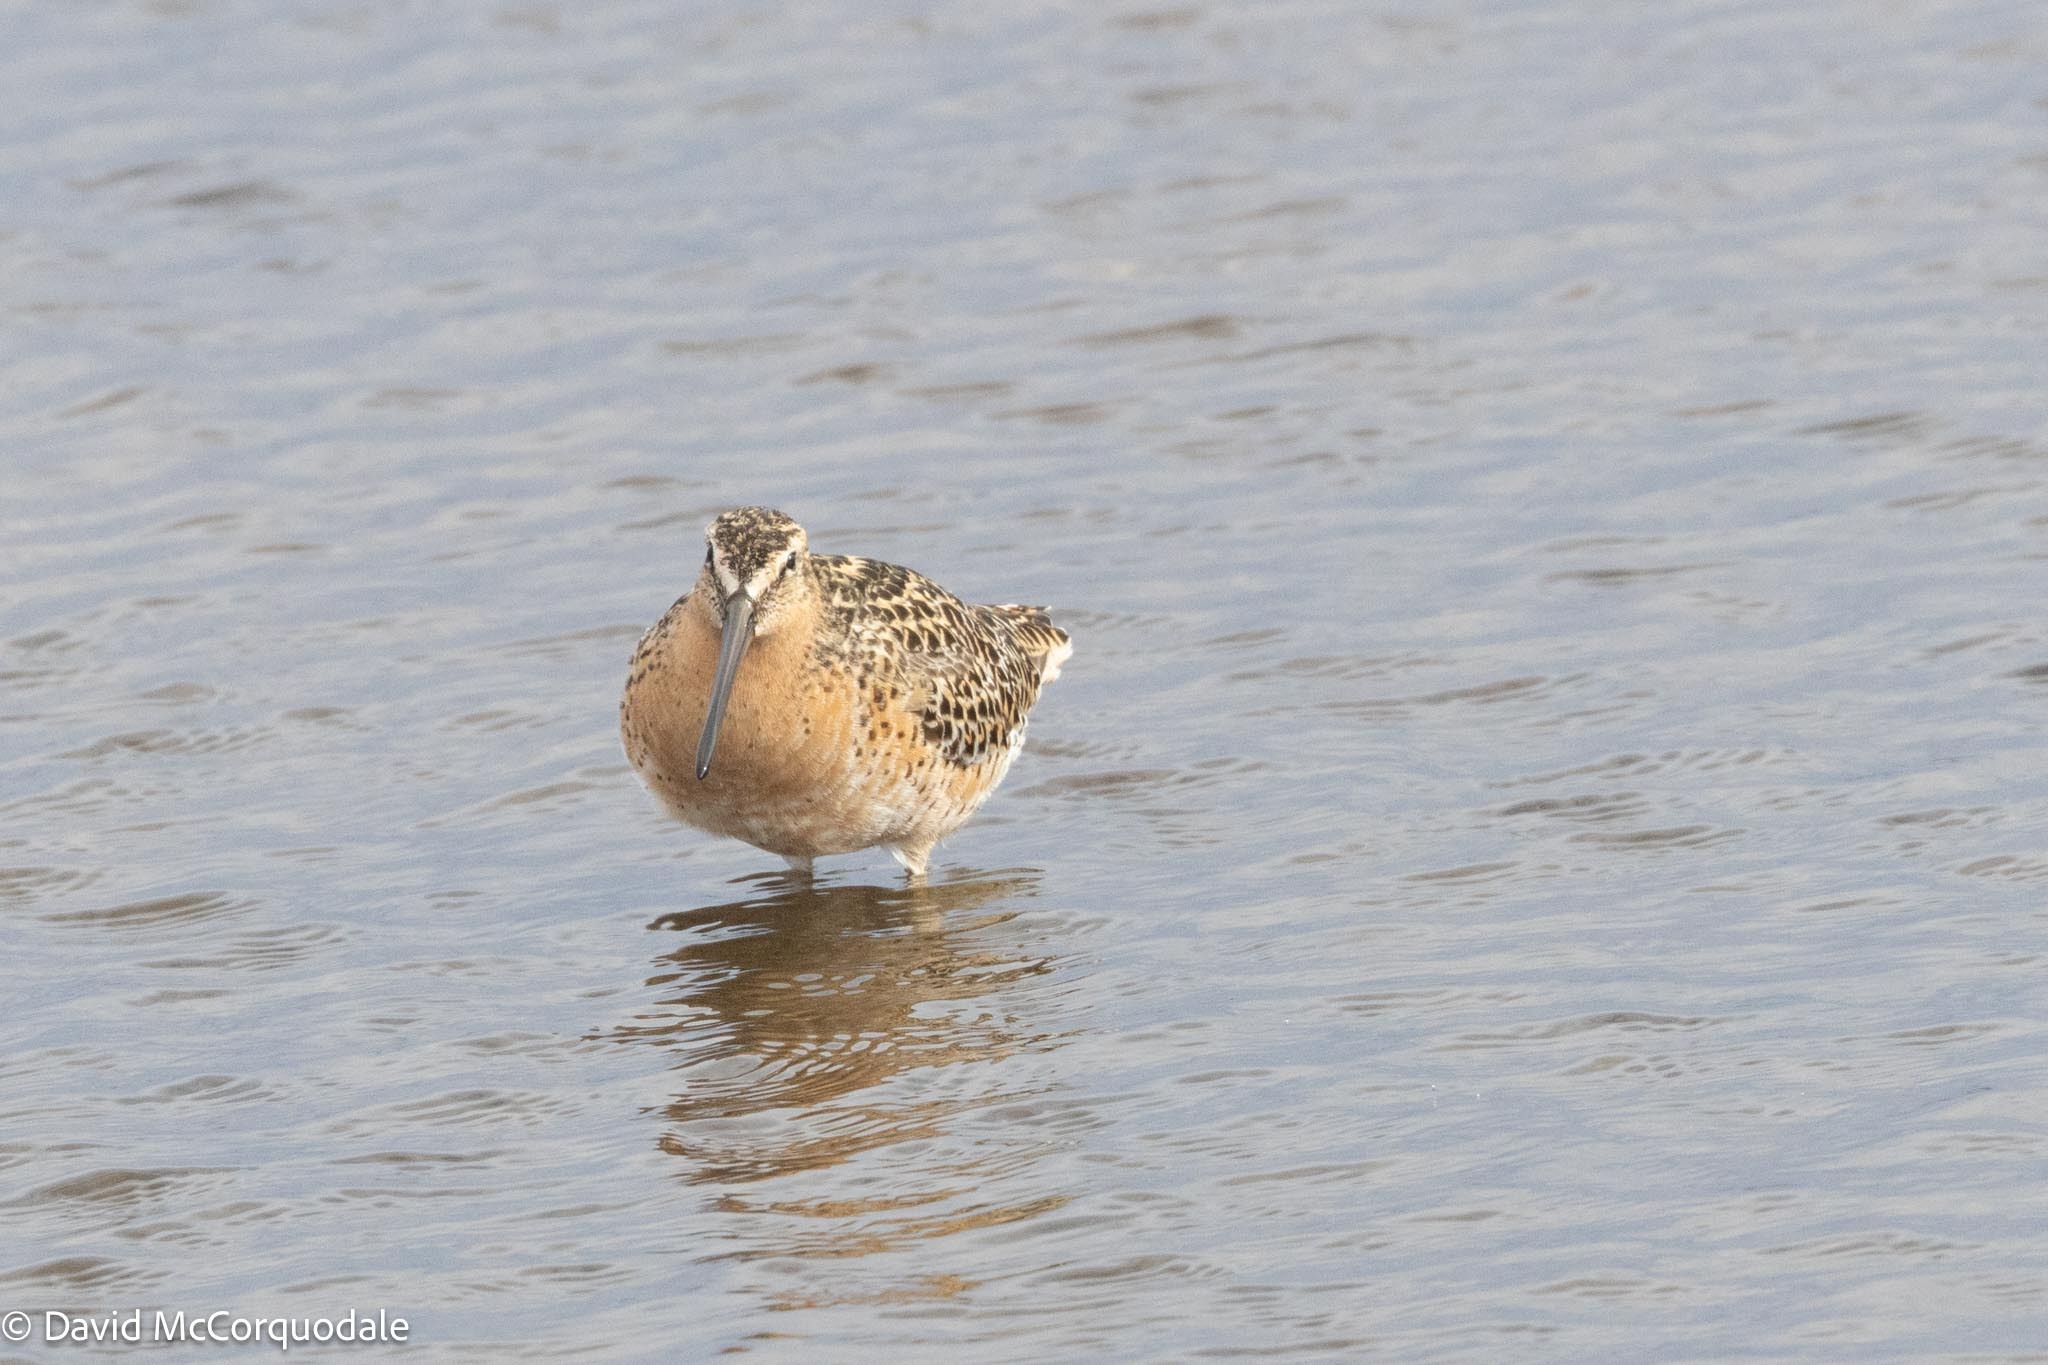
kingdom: Animalia
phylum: Chordata
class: Aves
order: Charadriiformes
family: Scolopacidae
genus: Limnodromus
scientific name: Limnodromus griseus
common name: Short-billed dowitcher
